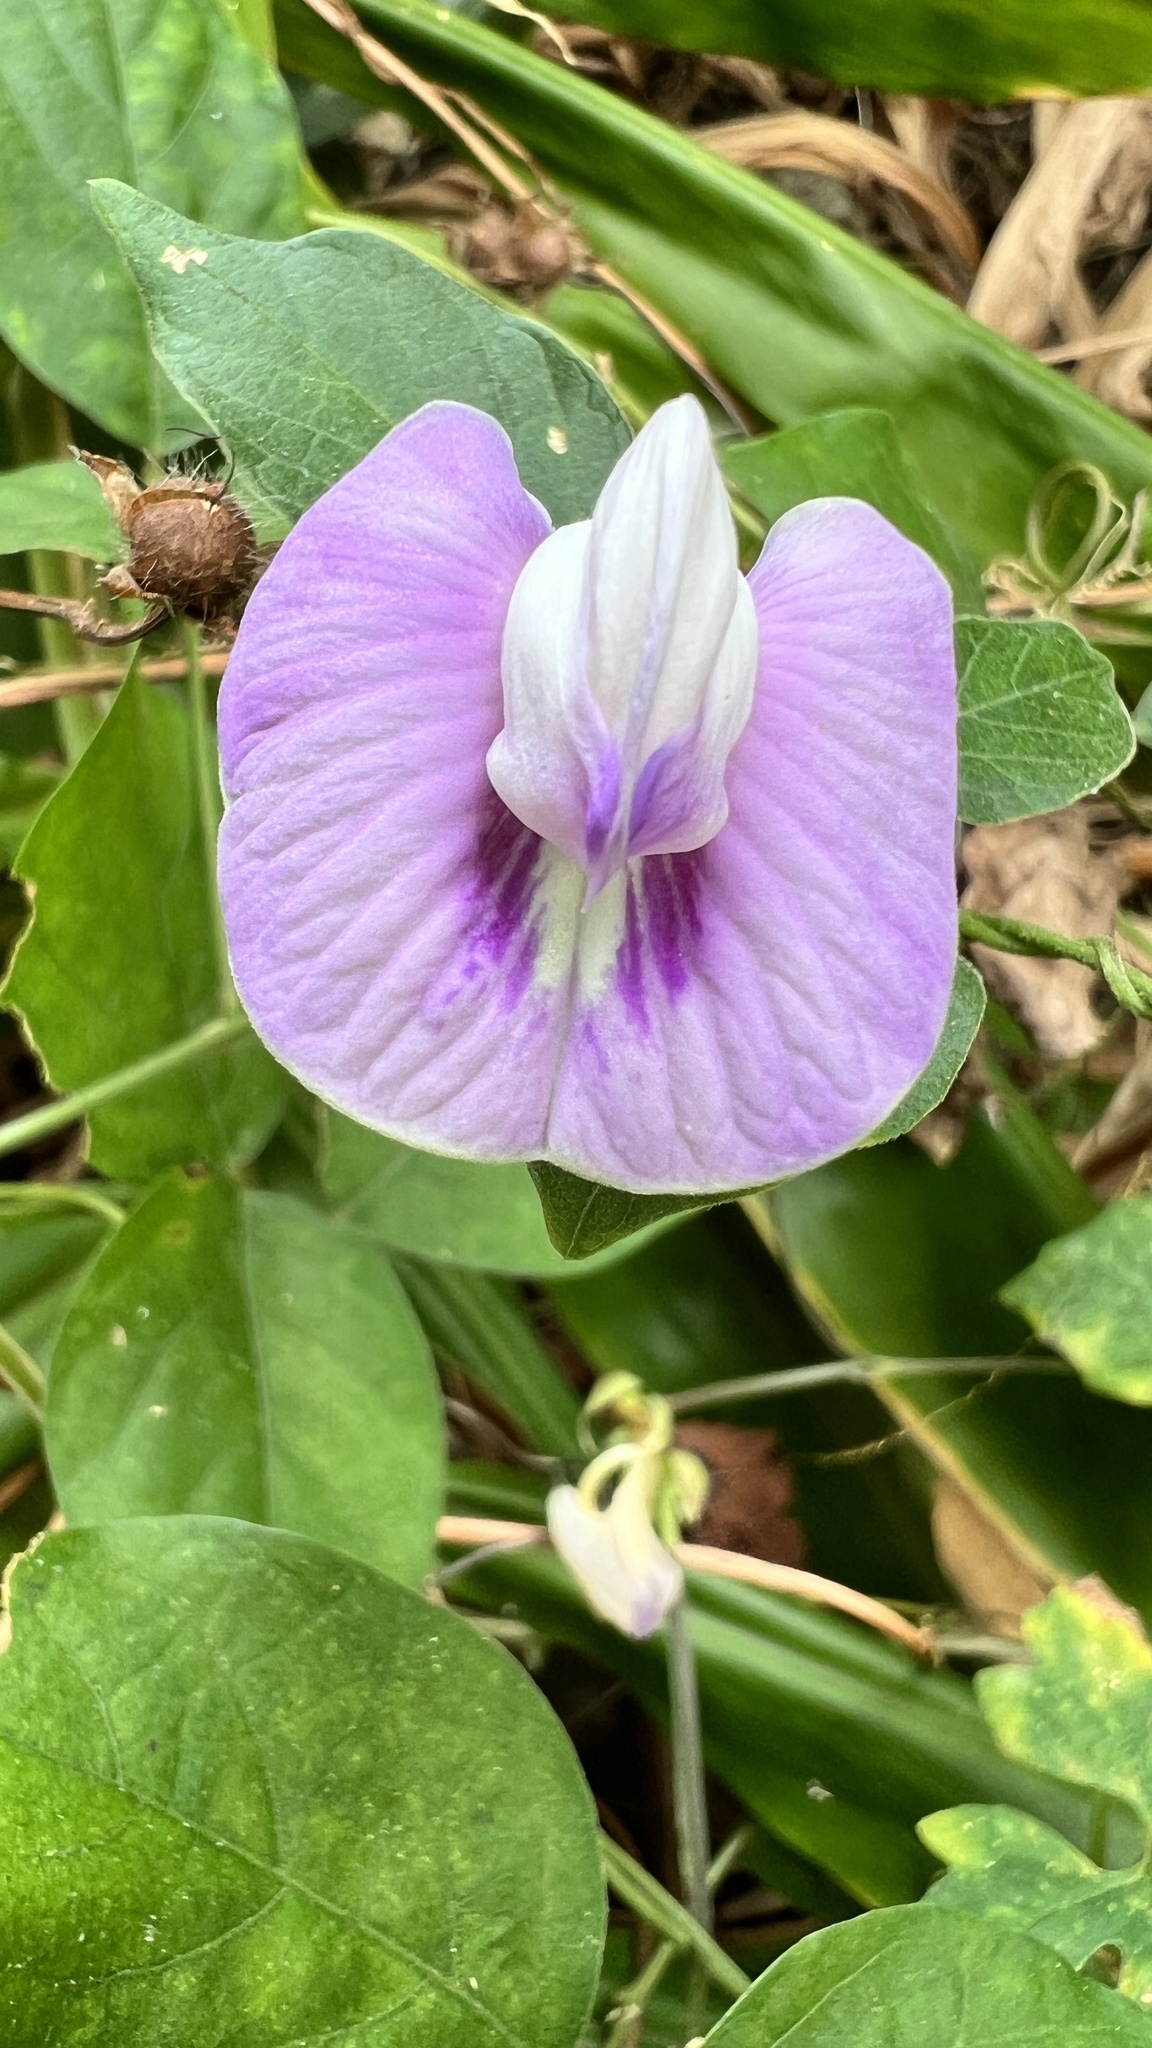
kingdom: Plantae
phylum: Tracheophyta
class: Magnoliopsida
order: Fabales
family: Fabaceae
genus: Centrosema
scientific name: Centrosema pubescens
